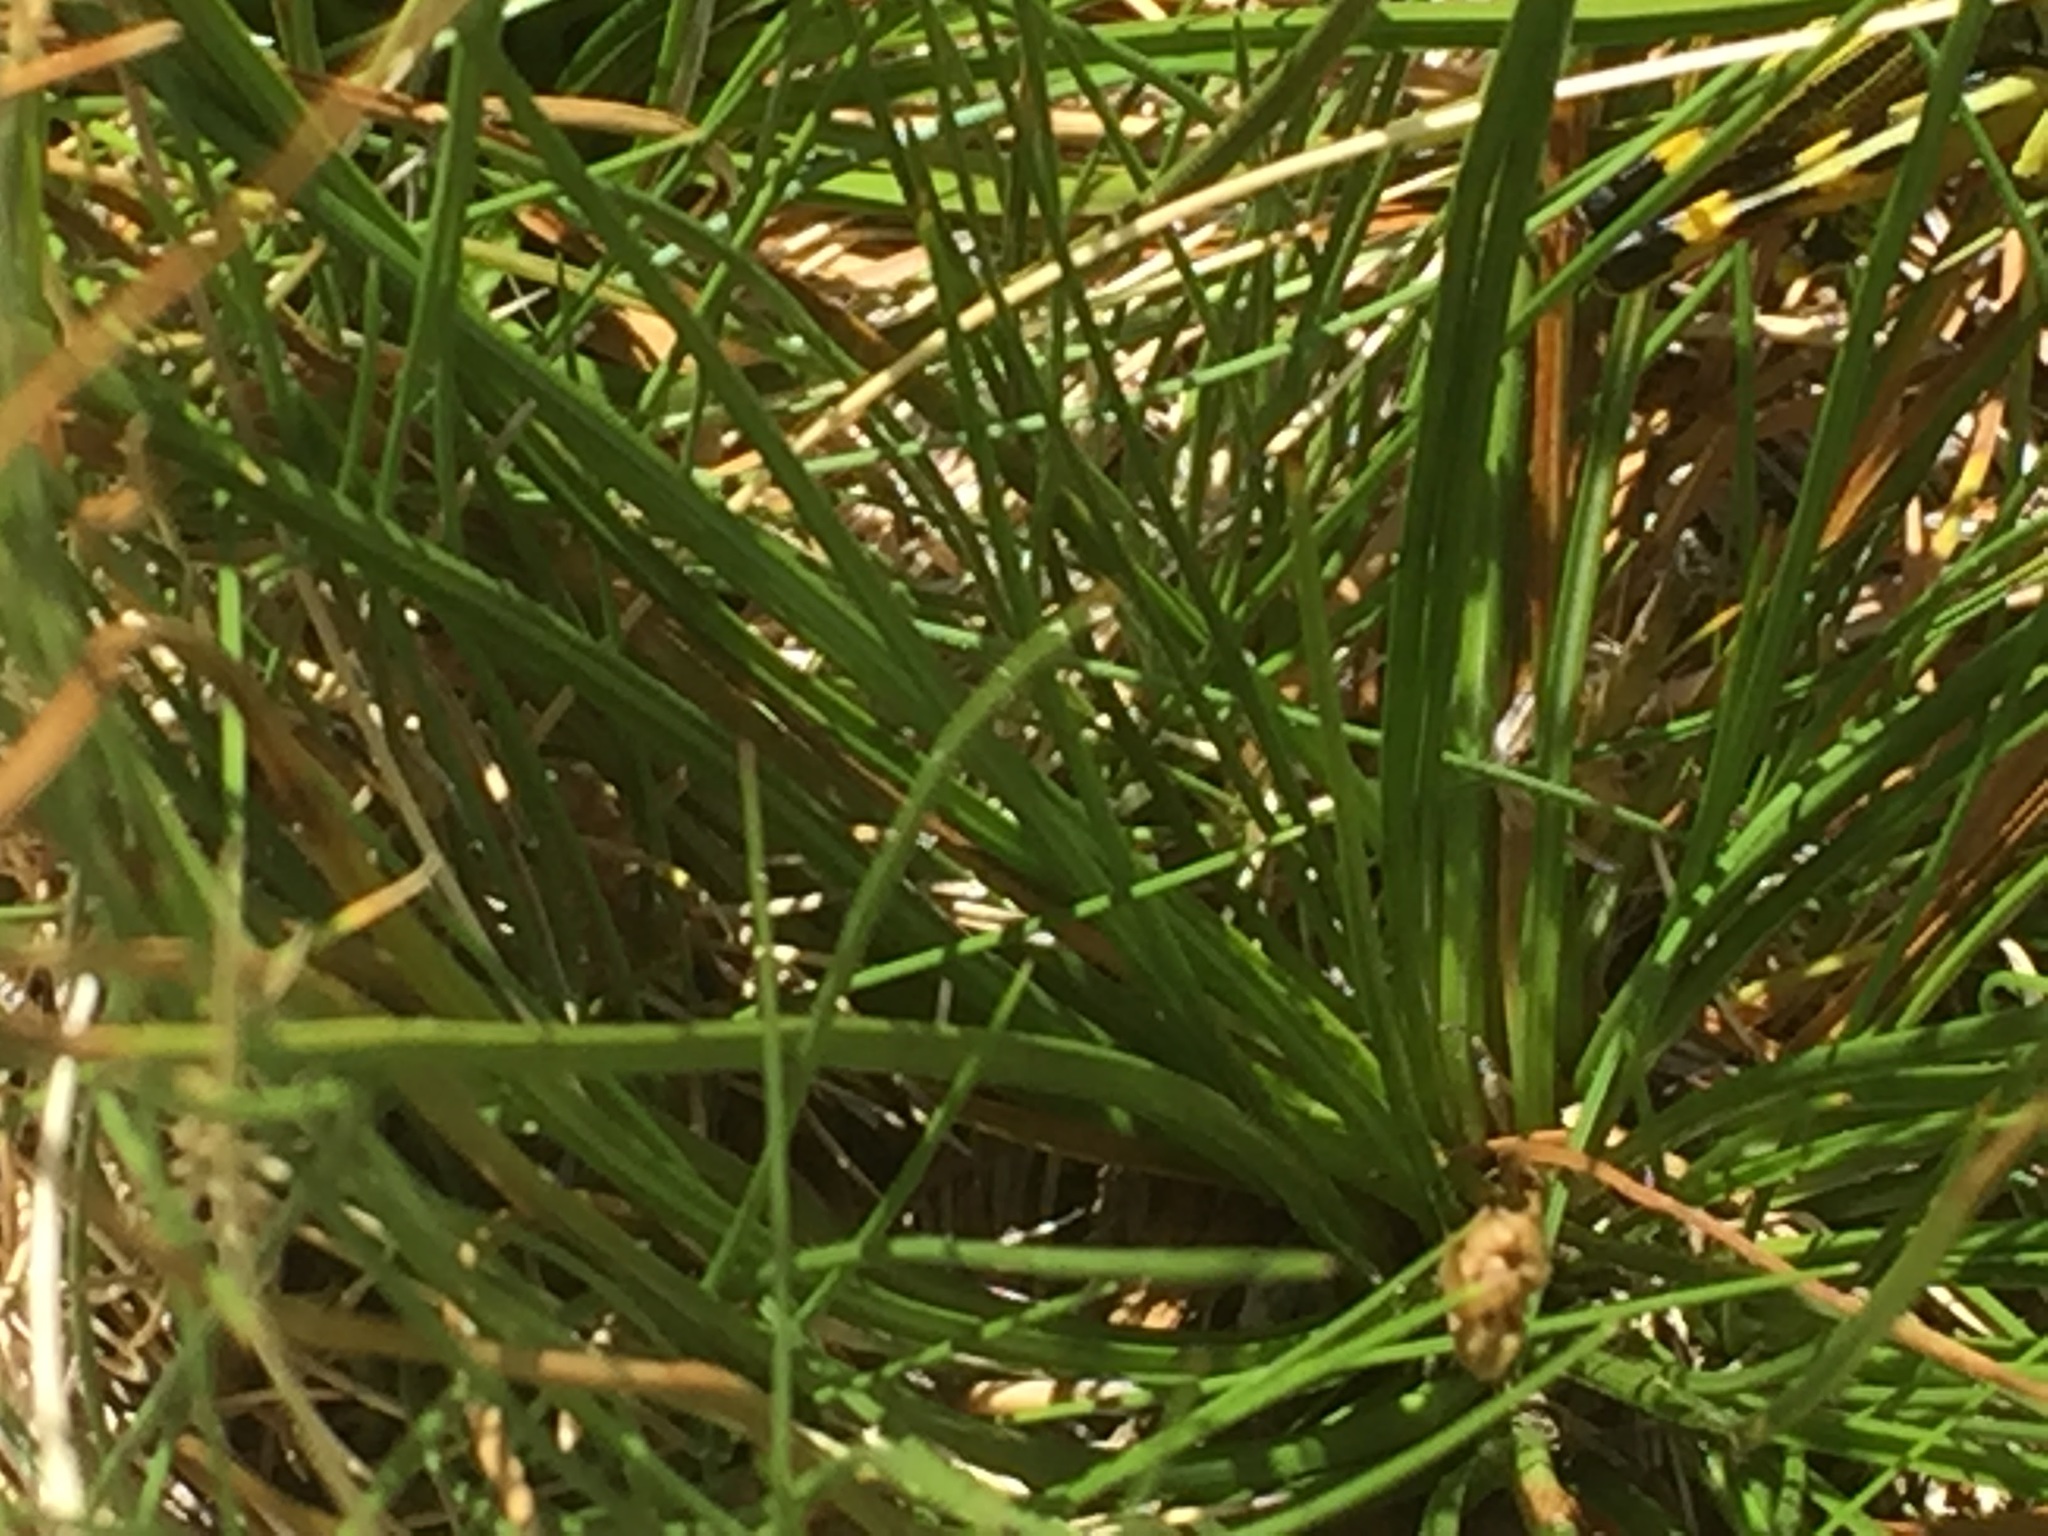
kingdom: Animalia
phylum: Arthropoda
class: Insecta
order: Orthoptera
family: Acrididae
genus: Arcyptera
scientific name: Arcyptera tornosi
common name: Iberian banded grasshopper
